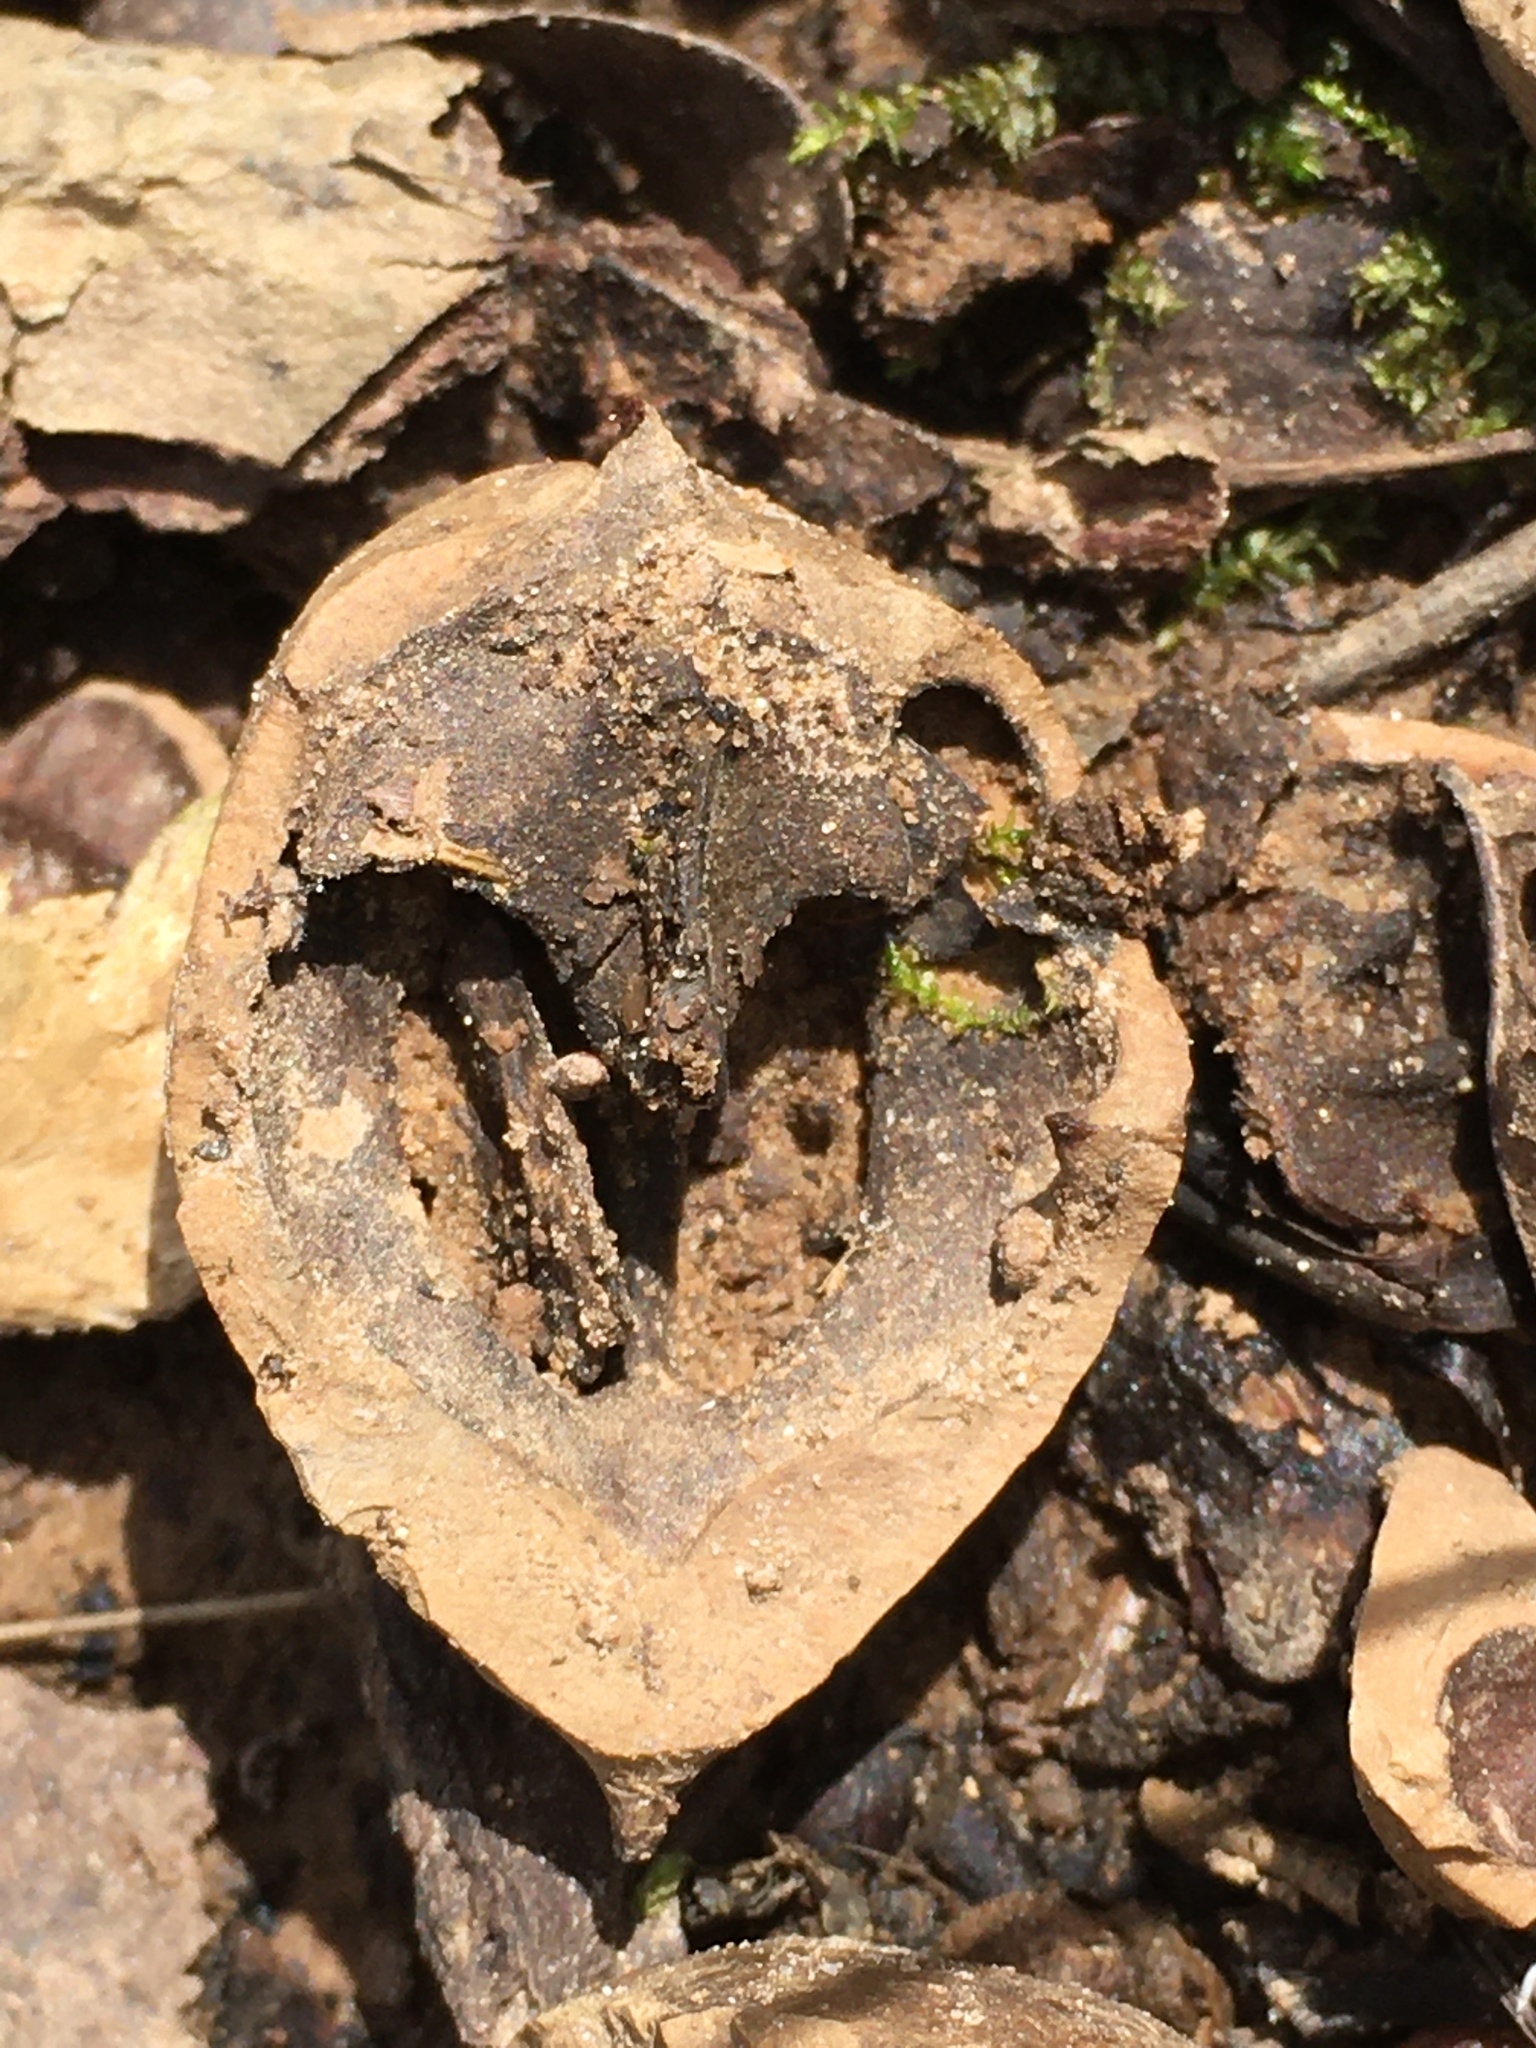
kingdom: Plantae
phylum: Tracheophyta
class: Magnoliopsida
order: Fagales
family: Juglandaceae
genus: Carya
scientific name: Carya ovata
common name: Shagbark hickory
